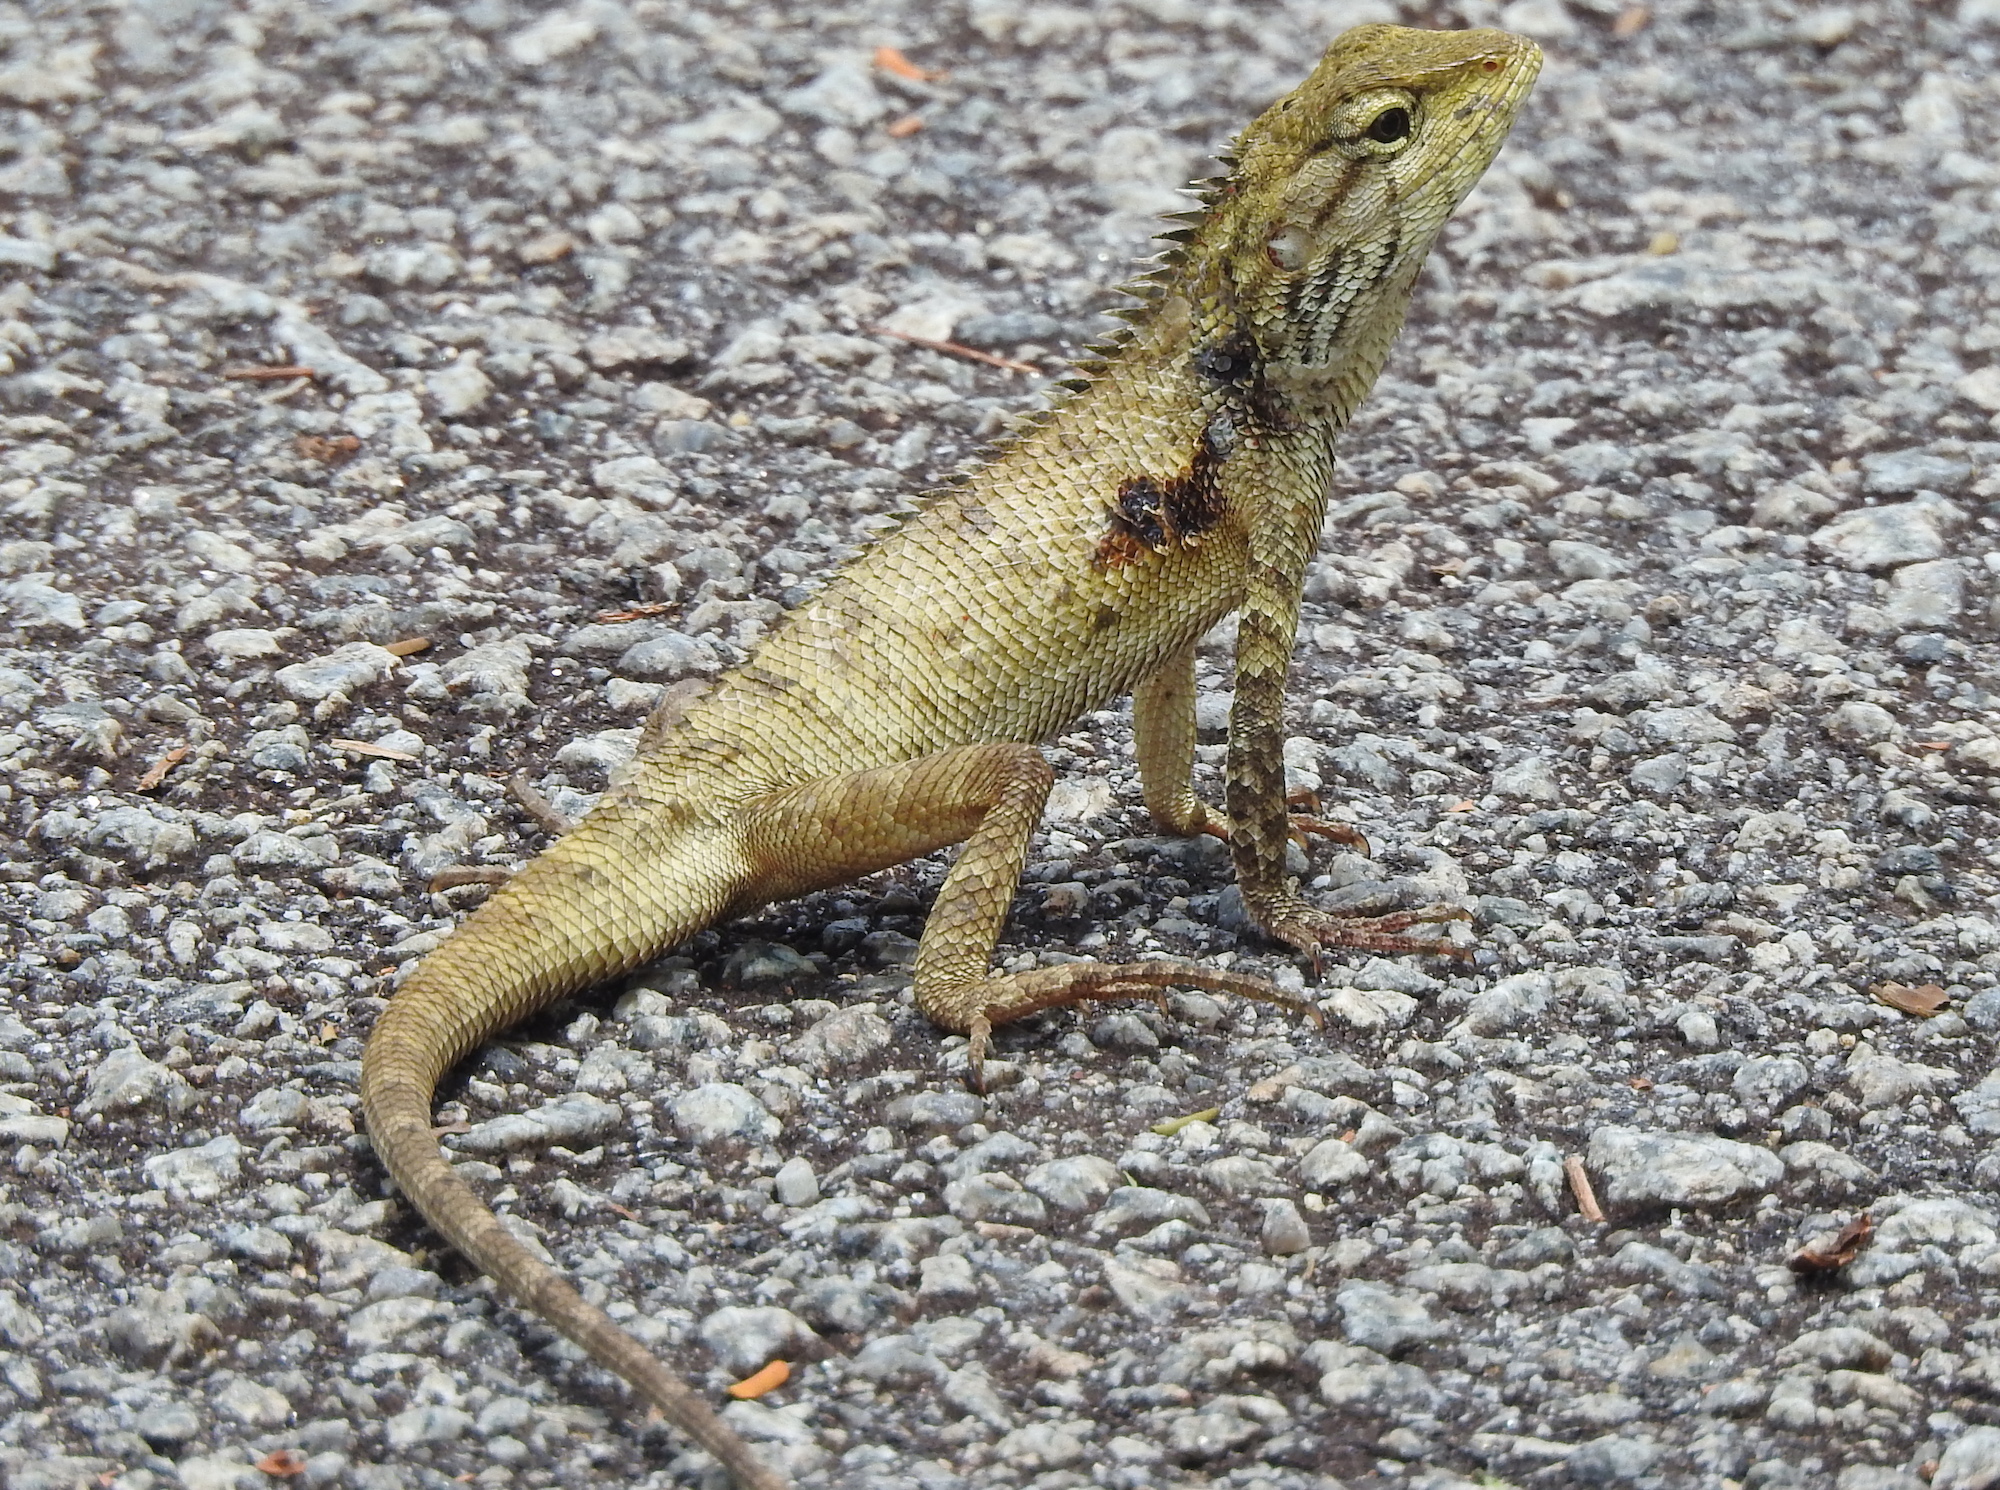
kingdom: Animalia
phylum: Chordata
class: Squamata
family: Agamidae
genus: Calotes
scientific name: Calotes versicolor
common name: Oriental garden lizard
